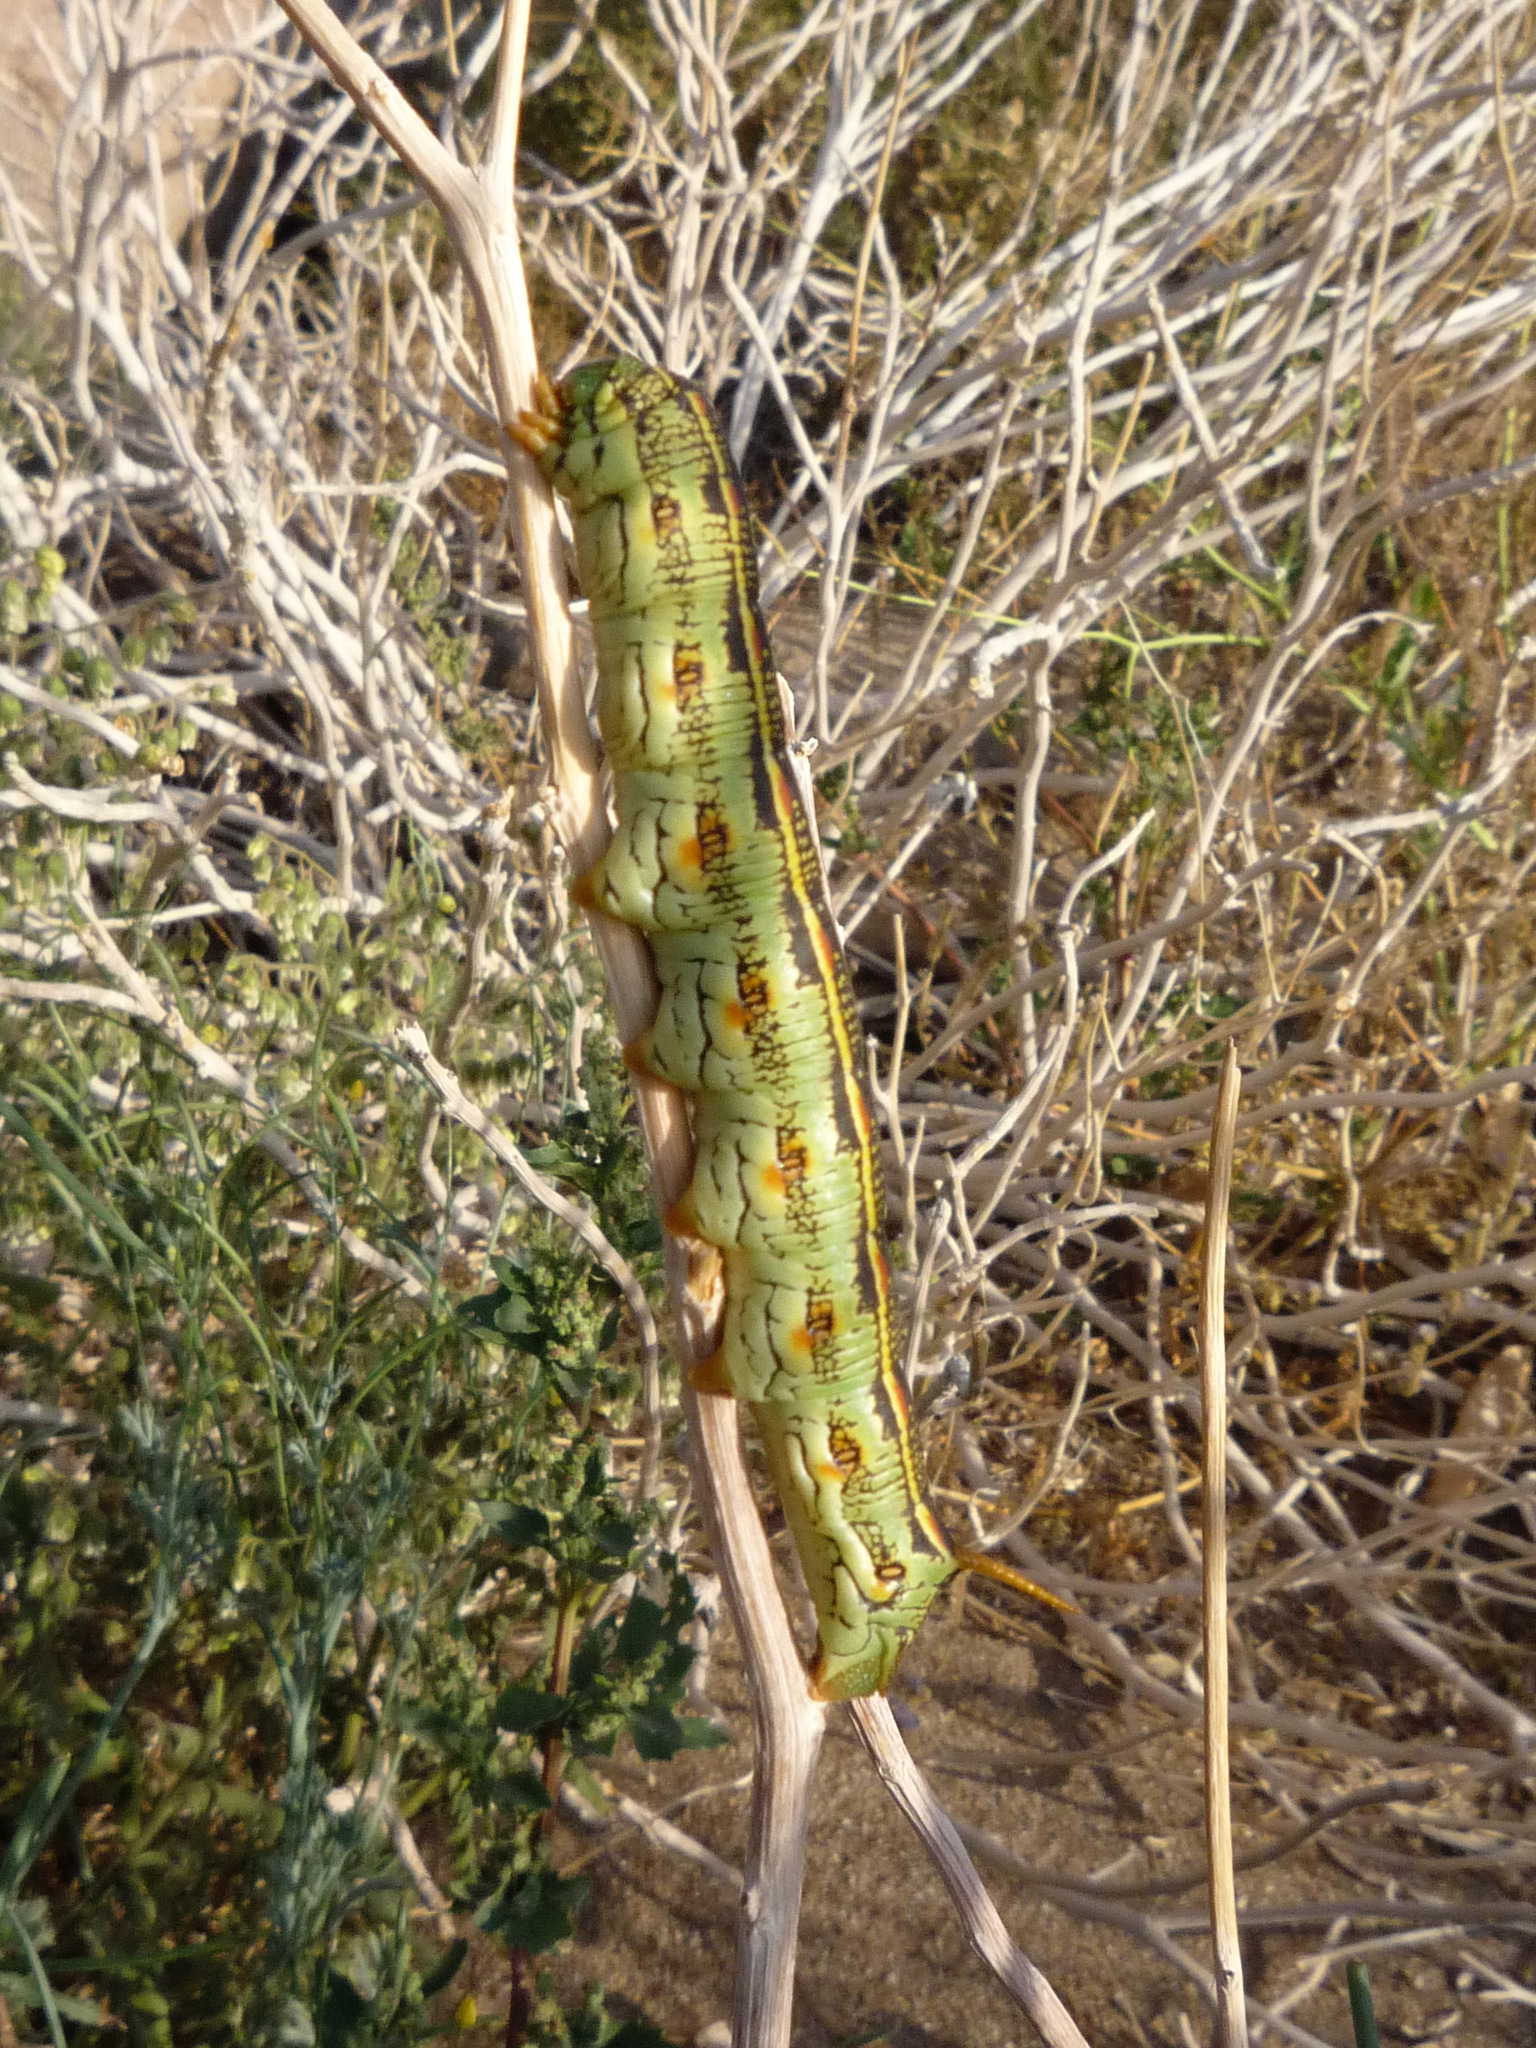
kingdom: Animalia
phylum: Arthropoda
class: Insecta
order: Lepidoptera
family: Sphingidae
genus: Hyles
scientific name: Hyles lineata
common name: White-lined sphinx
